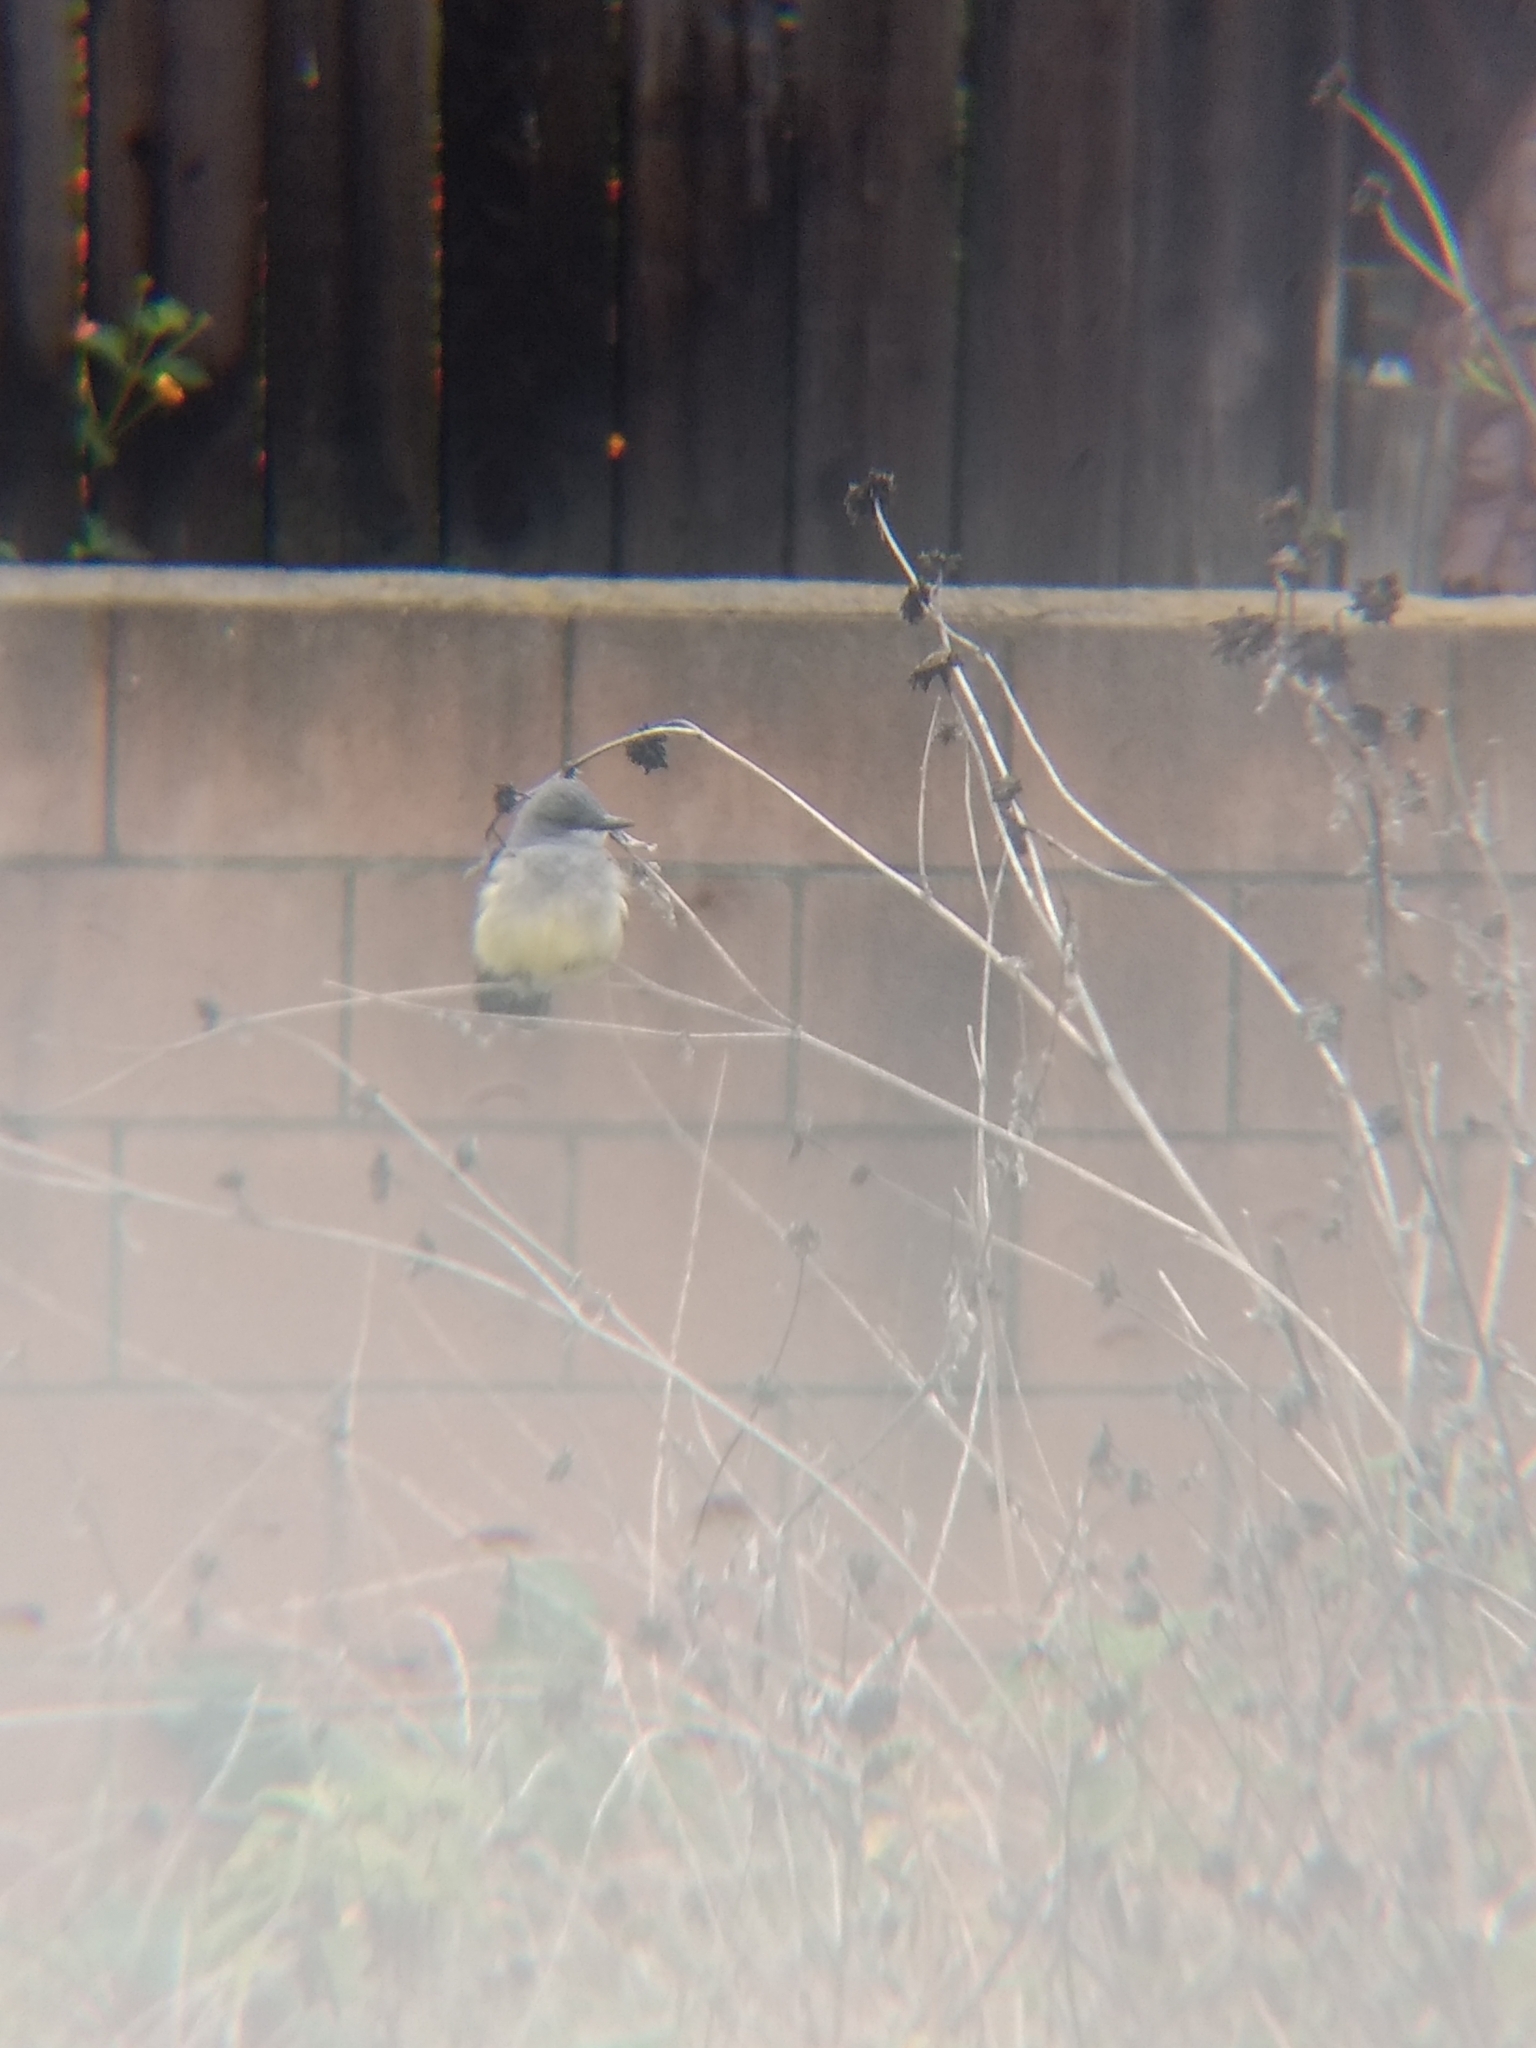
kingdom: Animalia
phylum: Chordata
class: Aves
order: Passeriformes
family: Tyrannidae
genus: Tyrannus
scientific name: Tyrannus vociferans
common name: Cassin's kingbird
